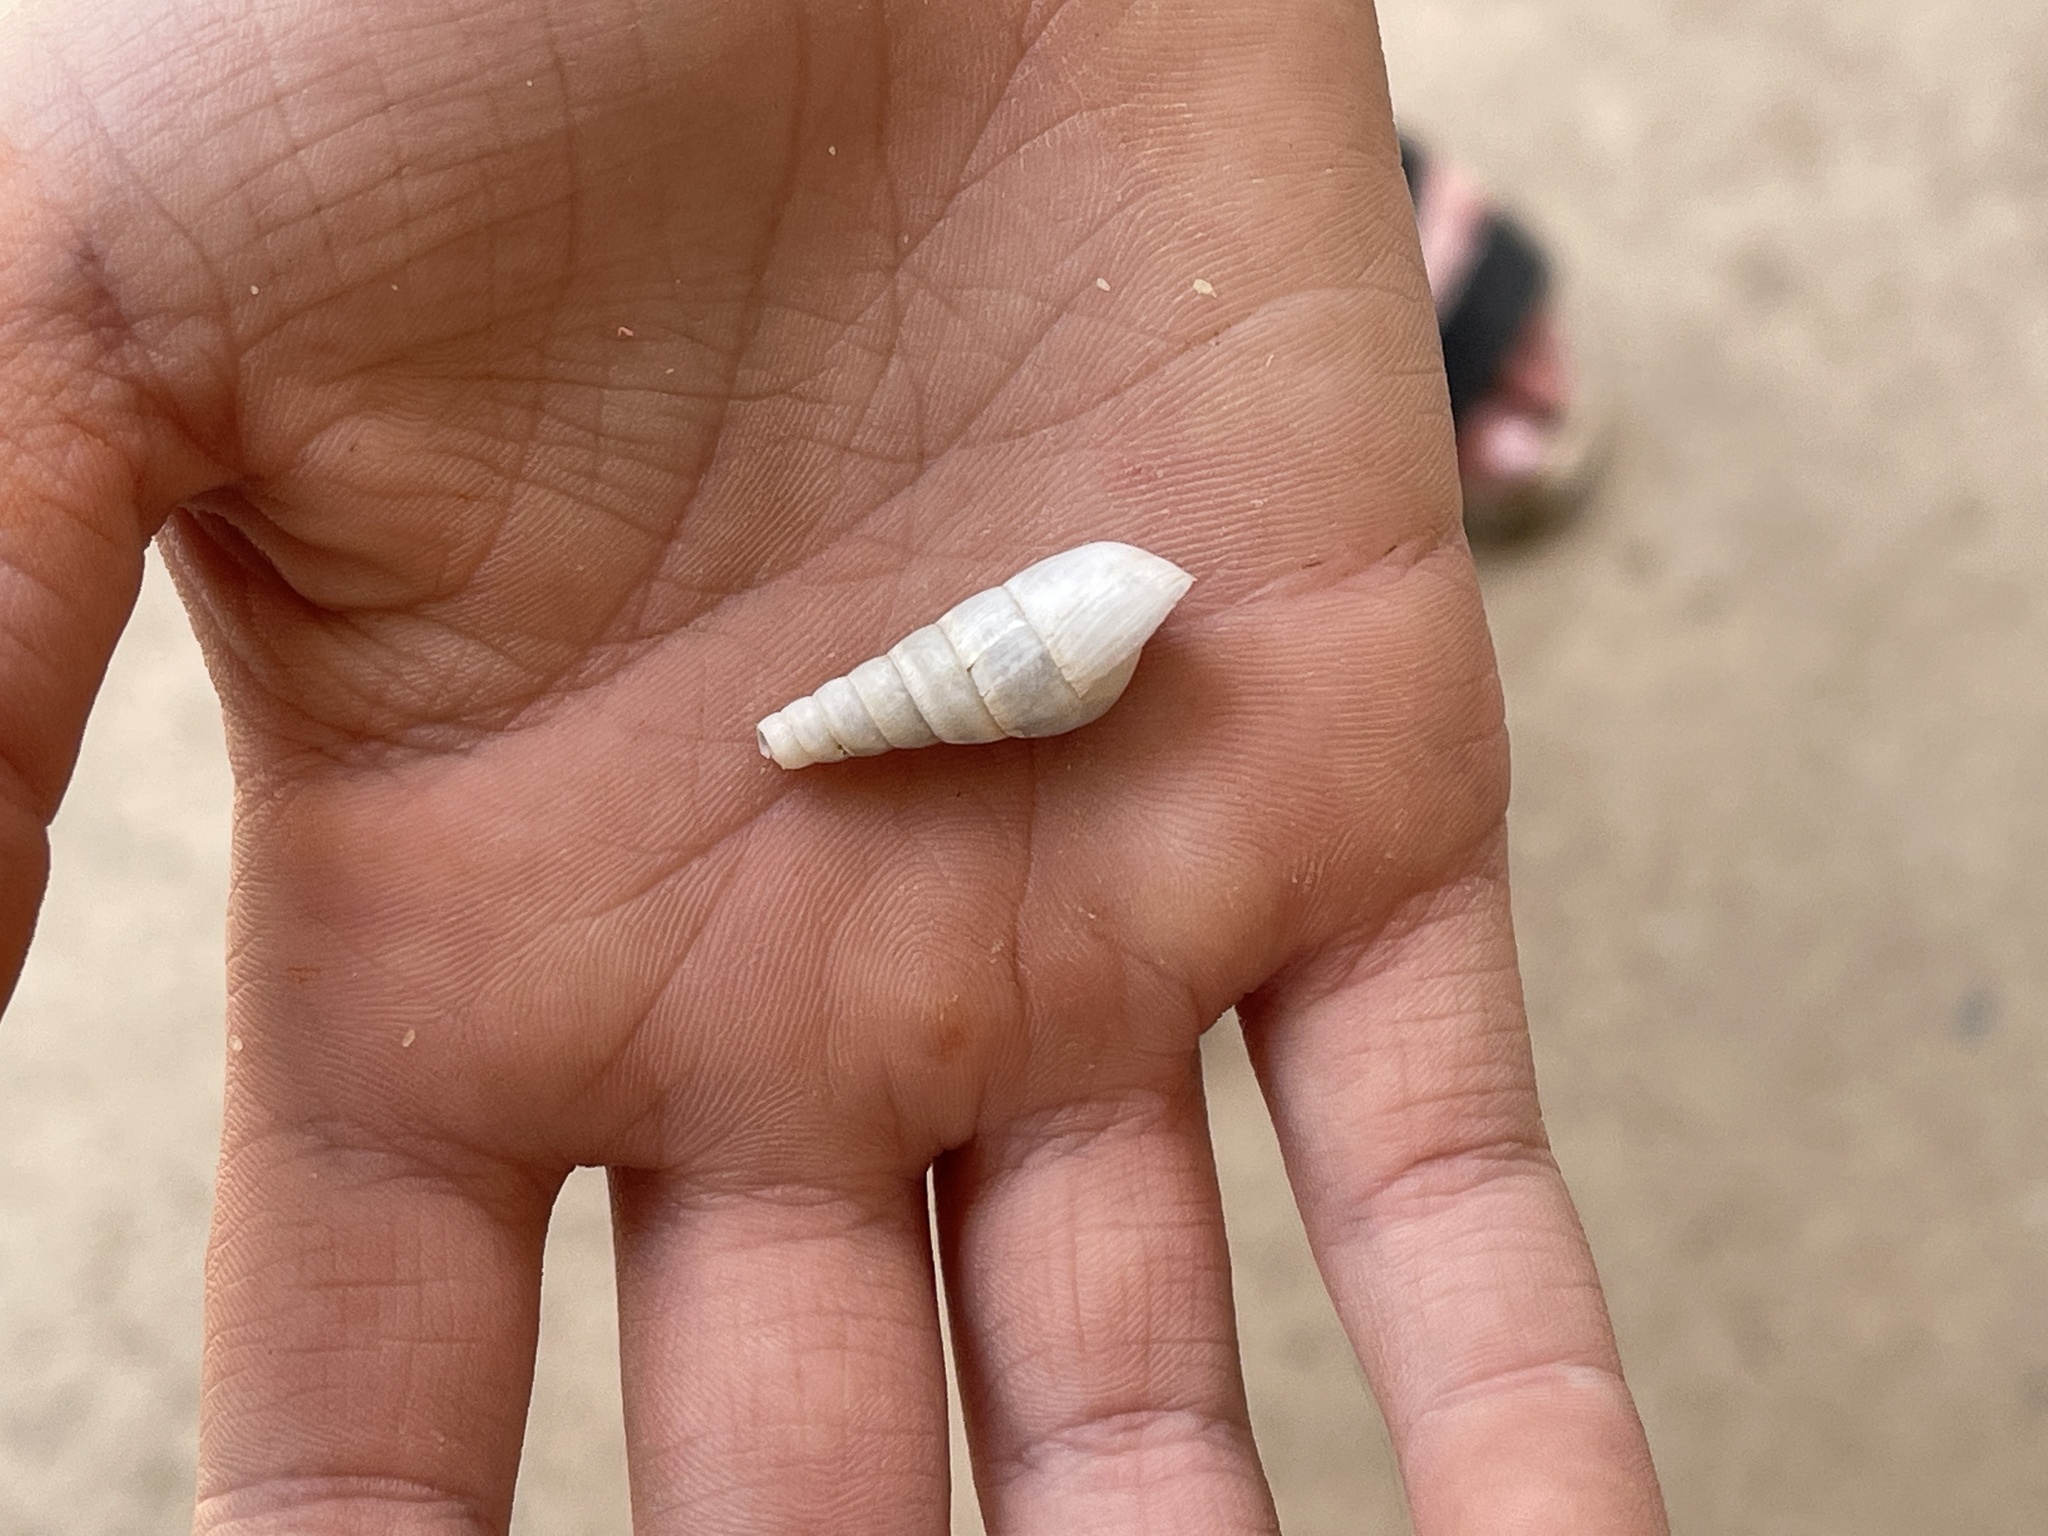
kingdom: Animalia
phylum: Mollusca
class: Gastropoda
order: Stylommatophora
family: Achatinidae
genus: Rumina
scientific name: Rumina decollata
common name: Decollate snail
